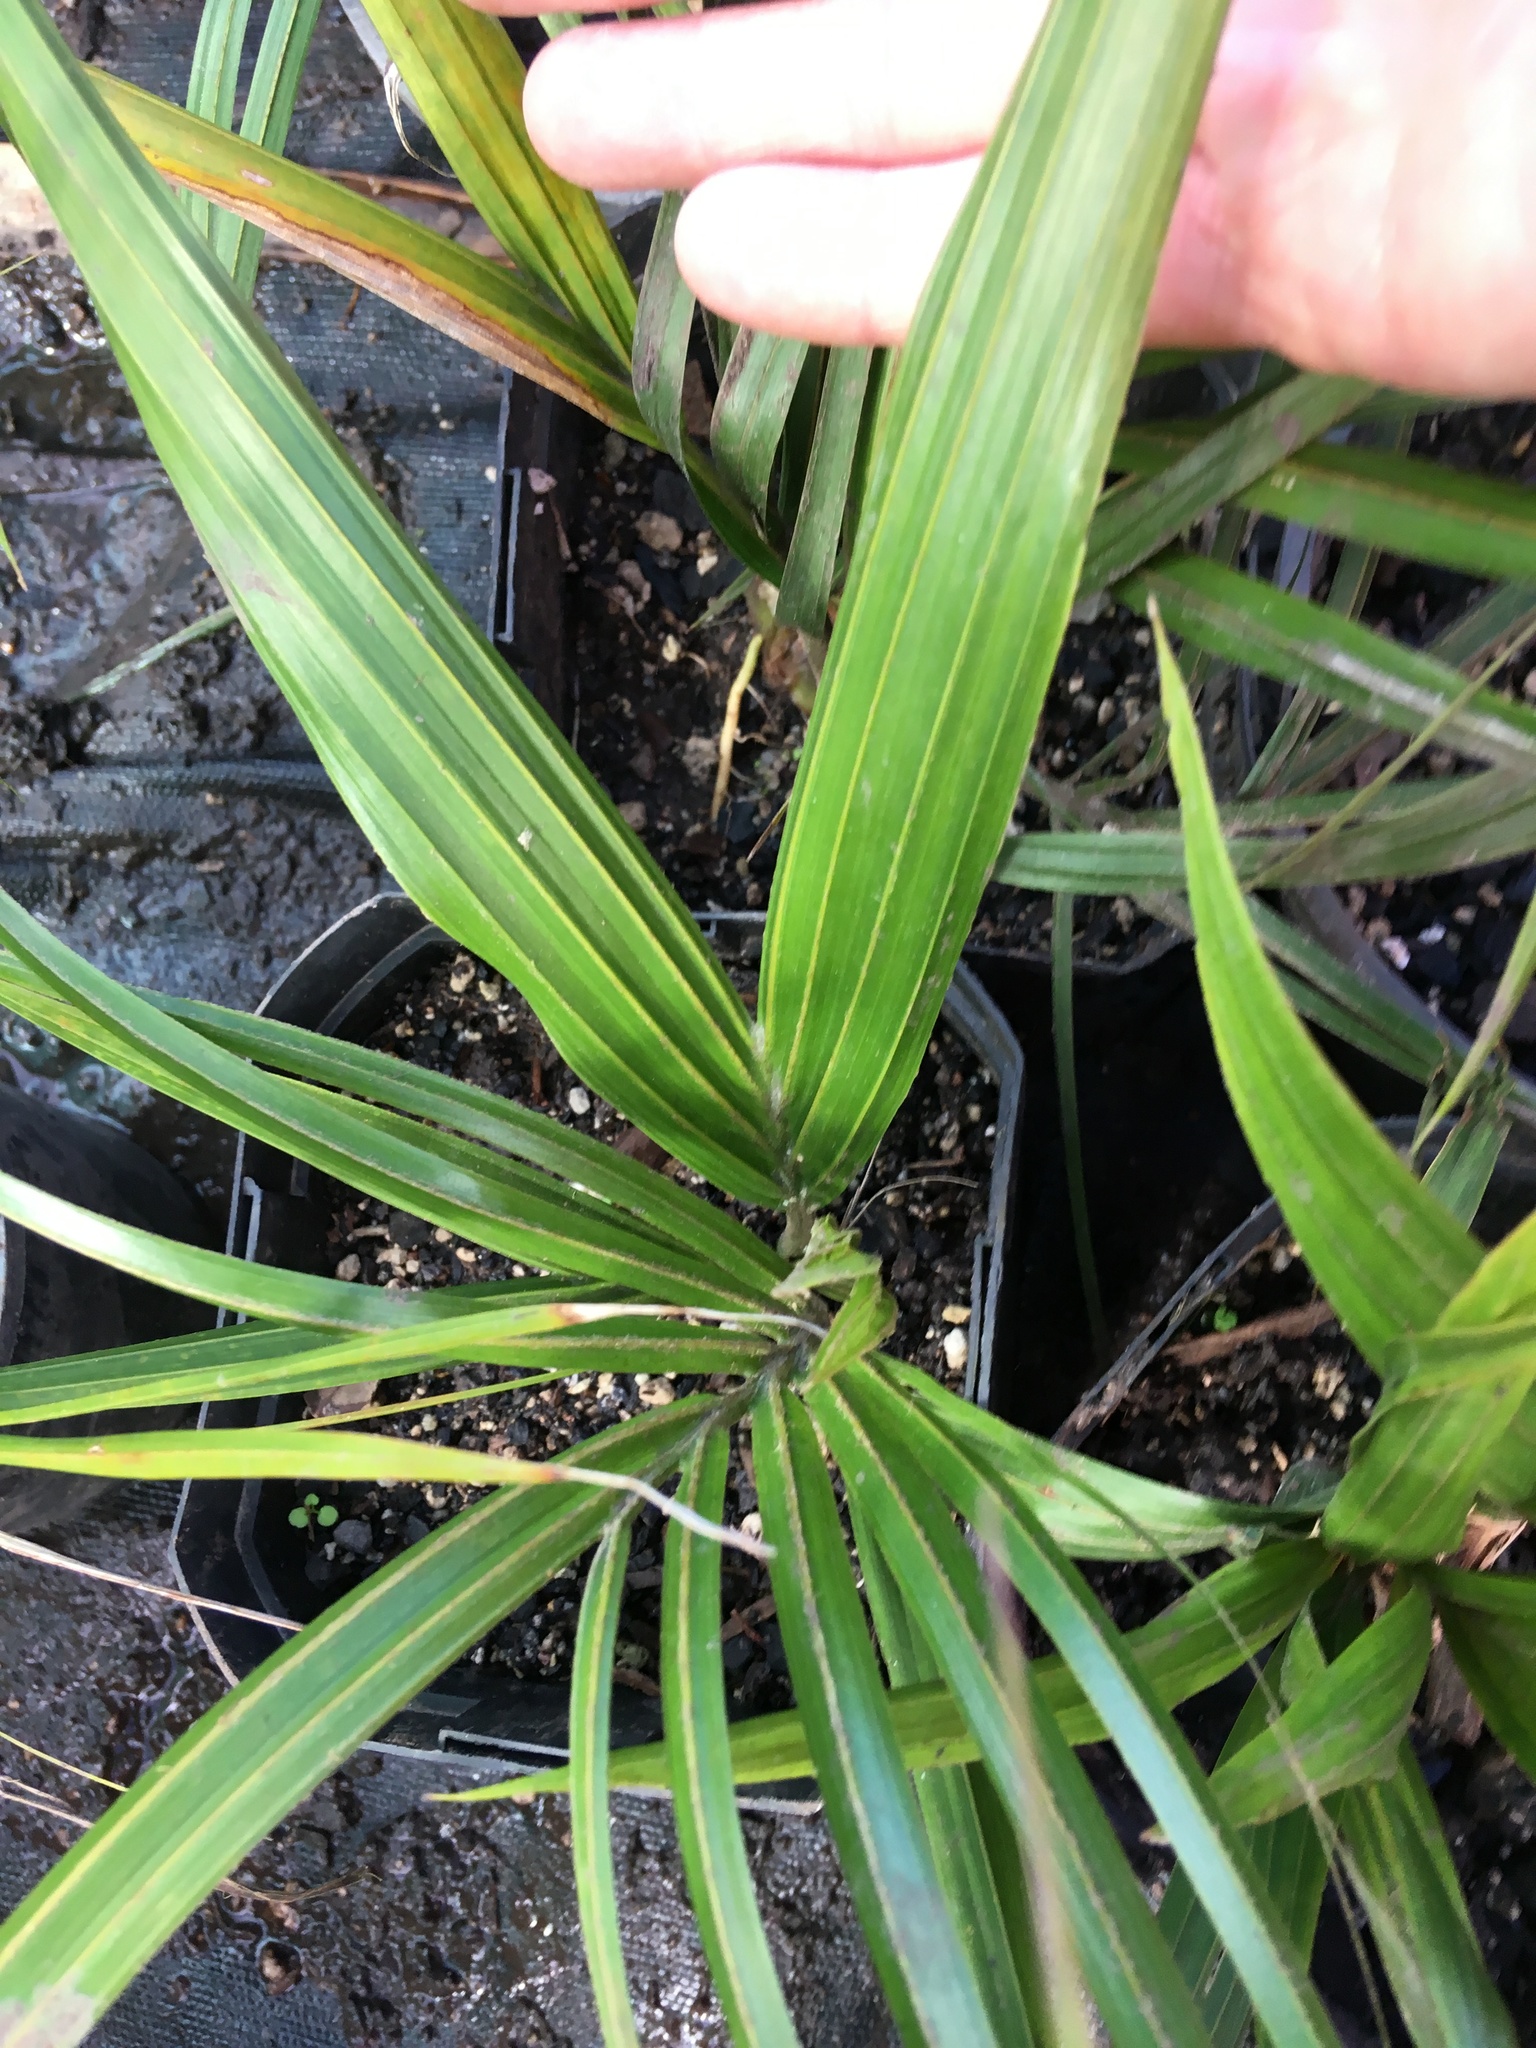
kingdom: Plantae
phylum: Tracheophyta
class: Liliopsida
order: Arecales
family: Arecaceae
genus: Rhopalostylis
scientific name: Rhopalostylis sapida
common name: Feather-duster palm
